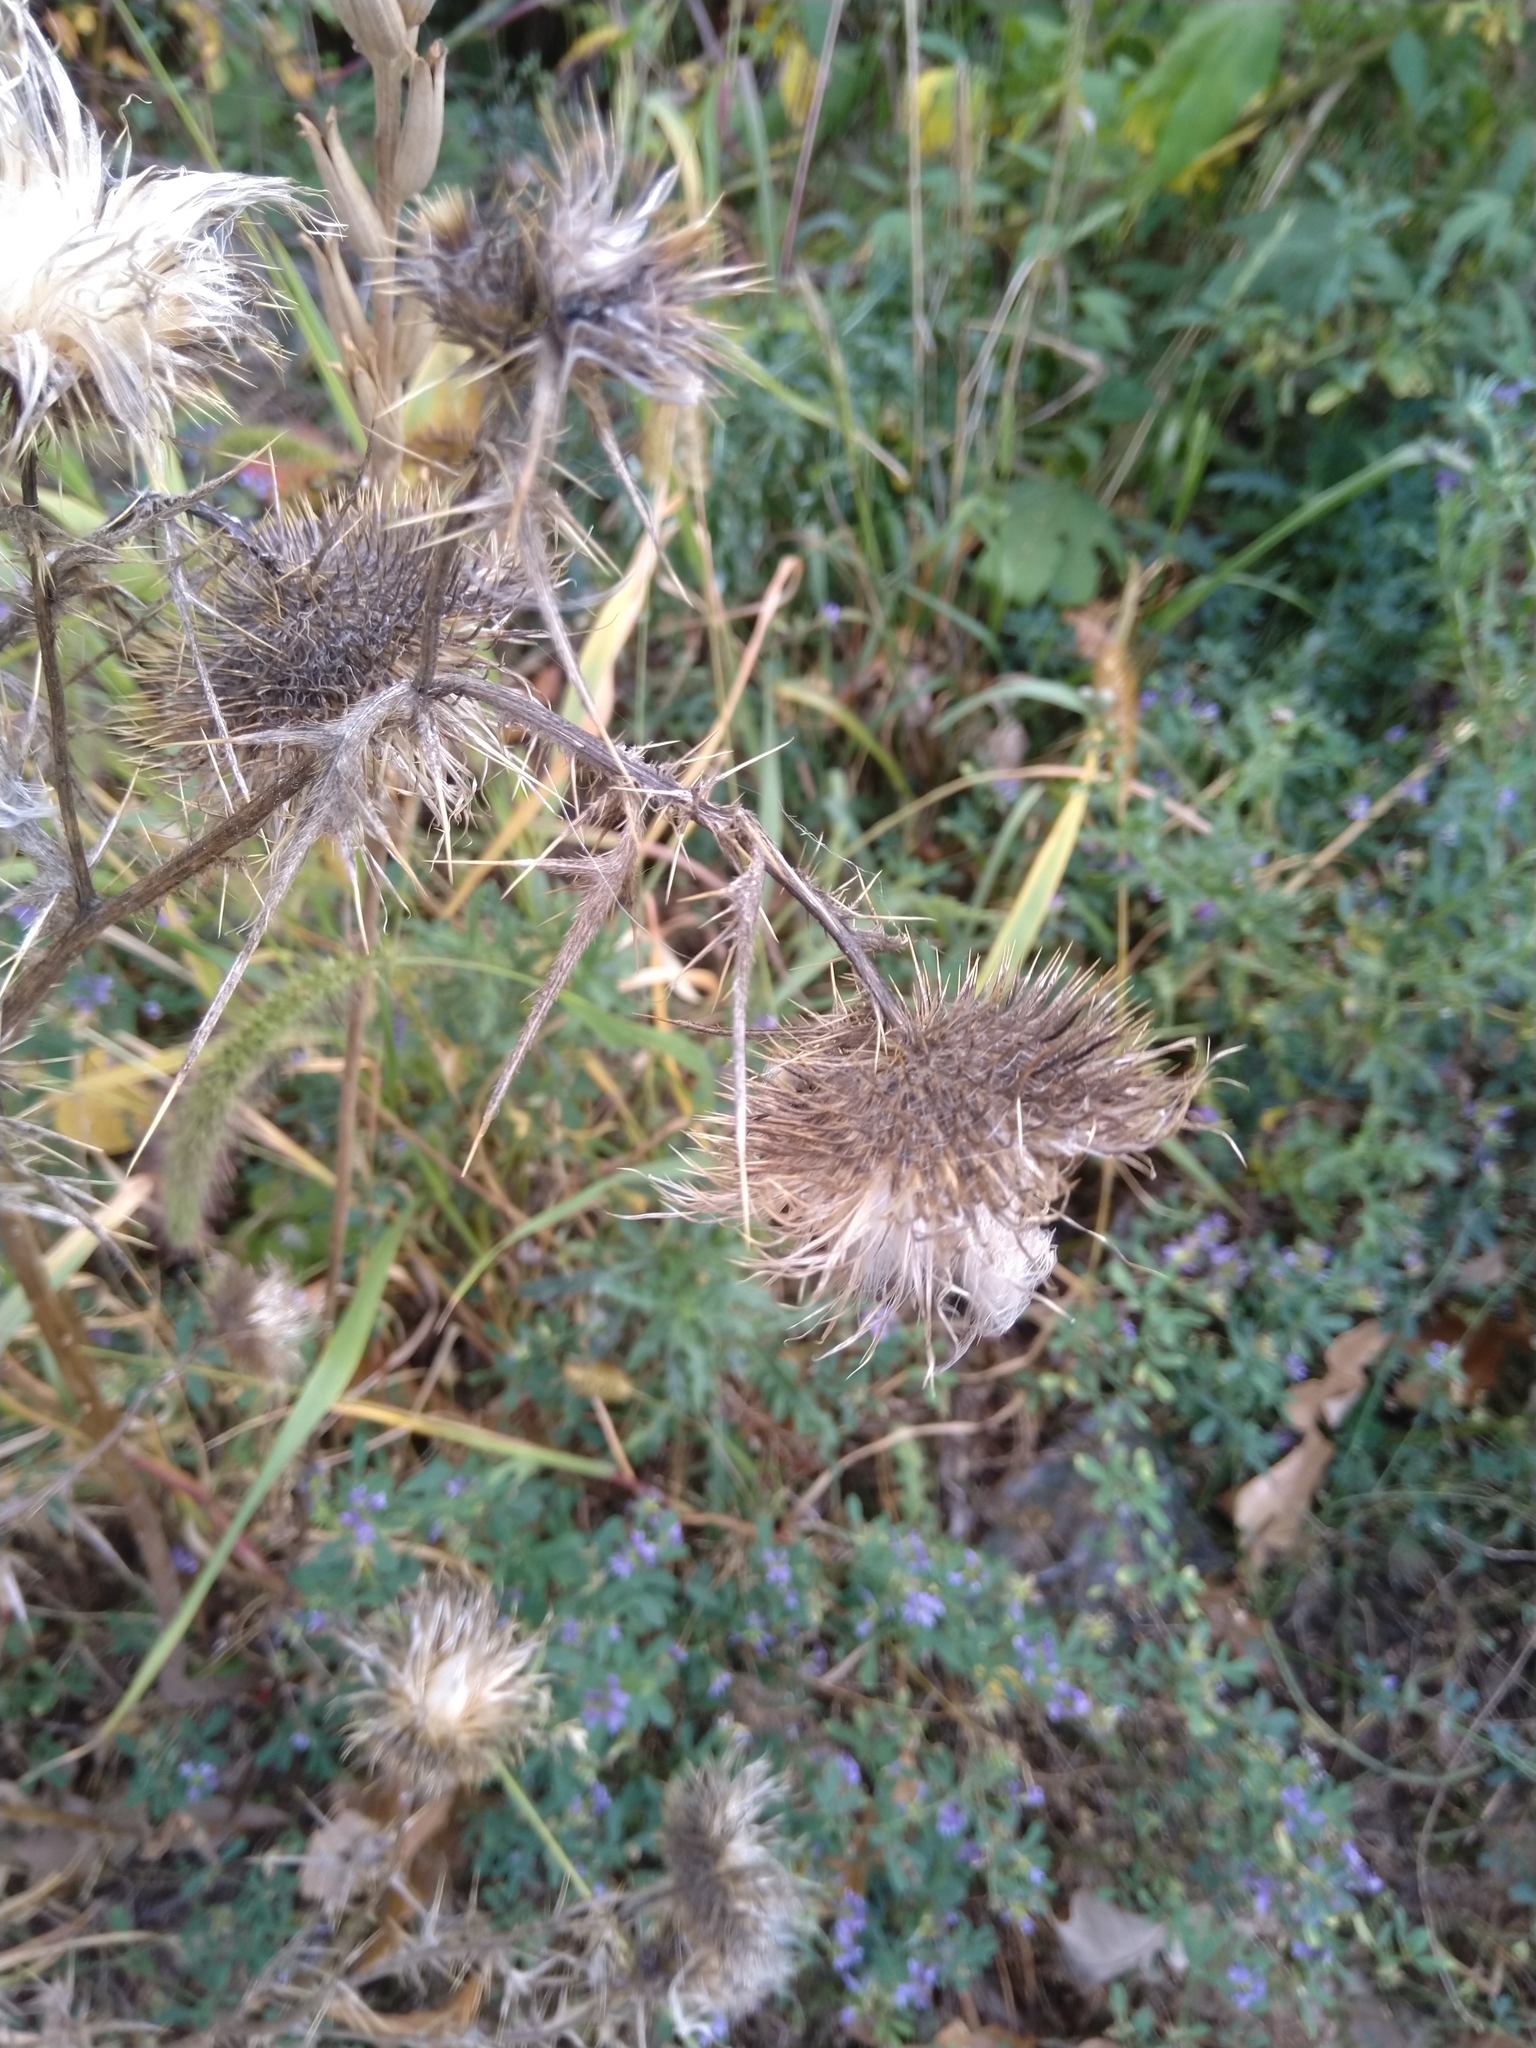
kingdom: Plantae
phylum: Tracheophyta
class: Magnoliopsida
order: Asterales
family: Asteraceae
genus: Cirsium
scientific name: Cirsium vulgare
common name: Bull thistle
